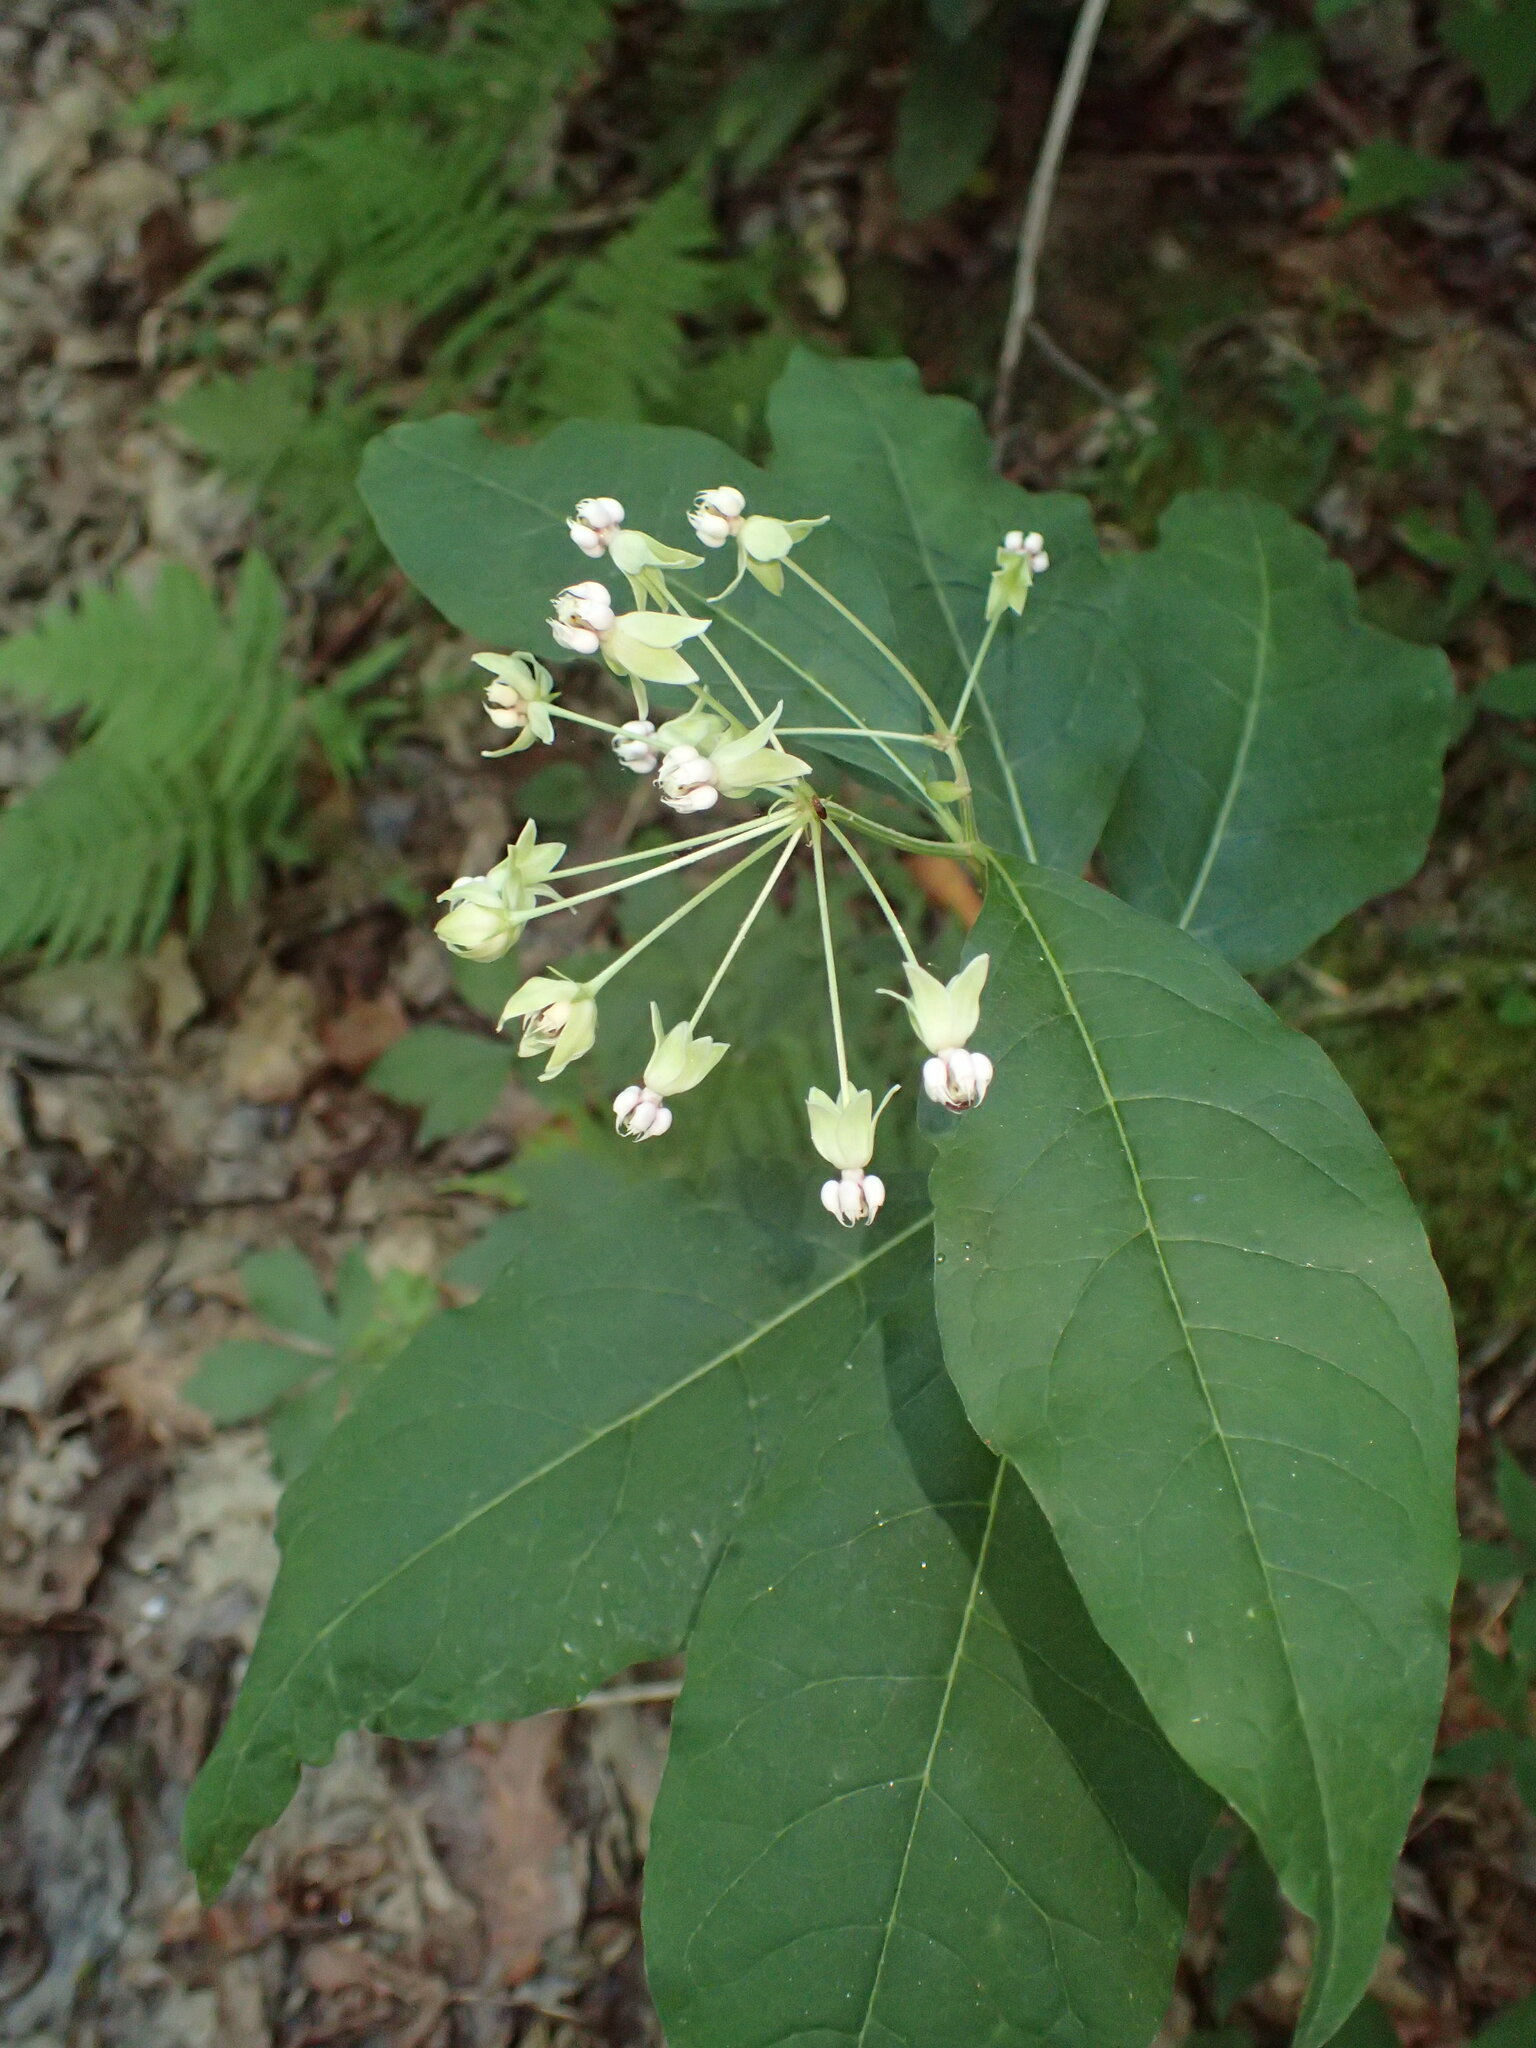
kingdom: Plantae
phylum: Tracheophyta
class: Magnoliopsida
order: Gentianales
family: Apocynaceae
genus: Asclepias
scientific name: Asclepias exaltata
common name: Poke milkweed
